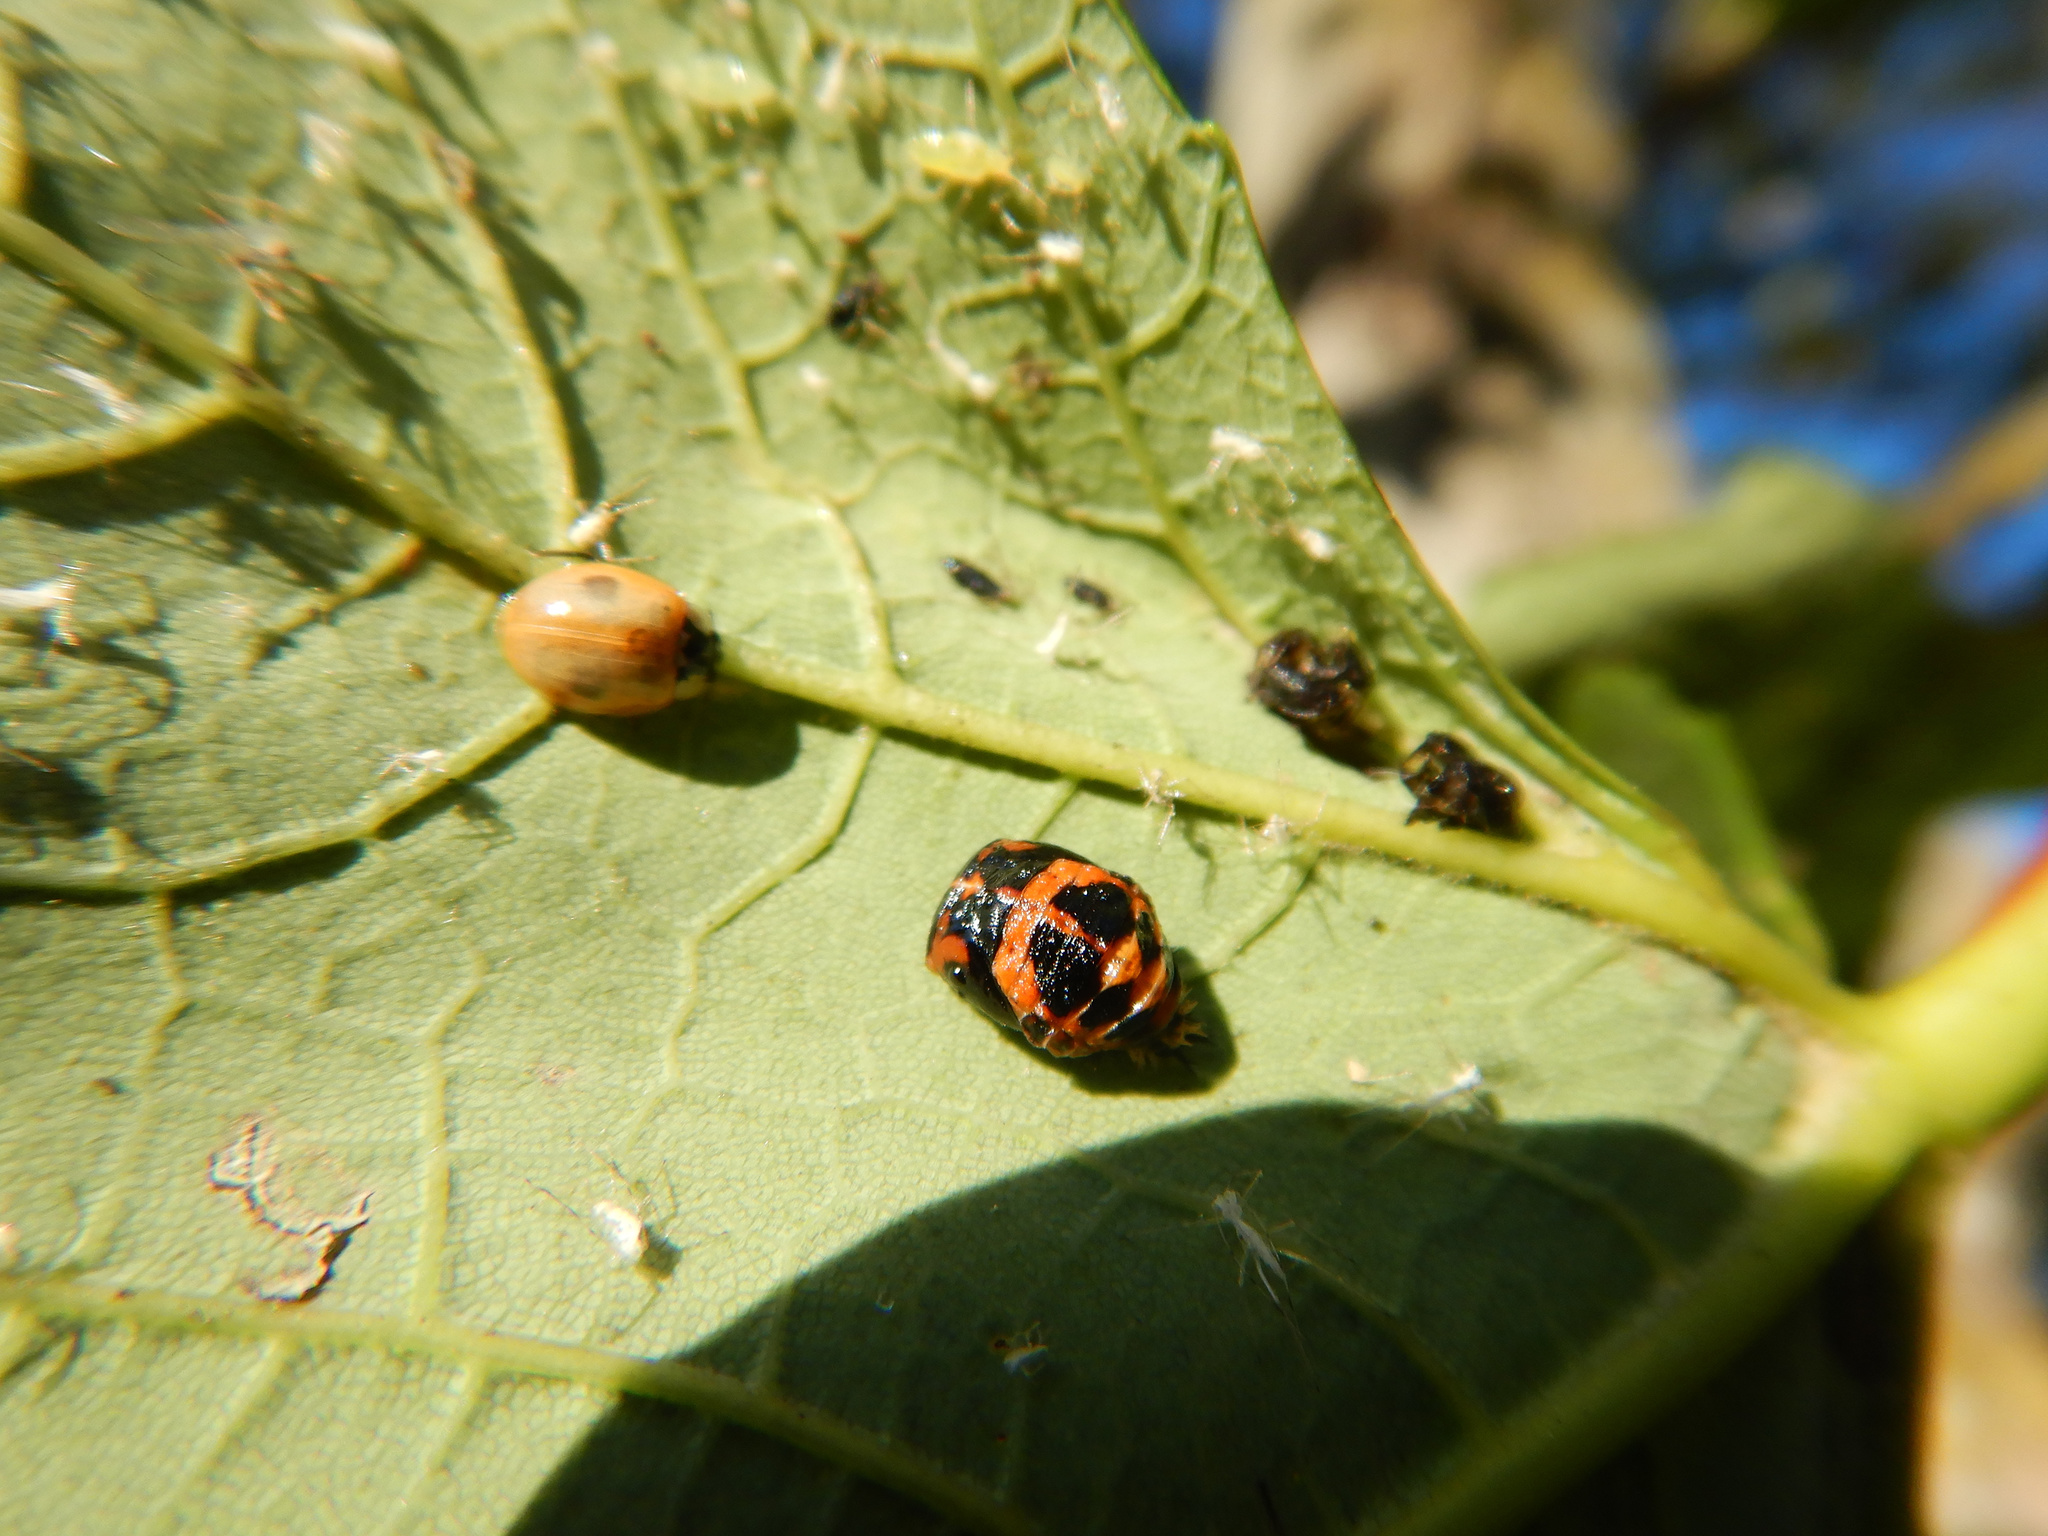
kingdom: Animalia
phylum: Arthropoda
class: Insecta
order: Coleoptera
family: Coccinellidae
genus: Harmonia
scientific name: Harmonia axyridis
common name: Harlequin ladybird
